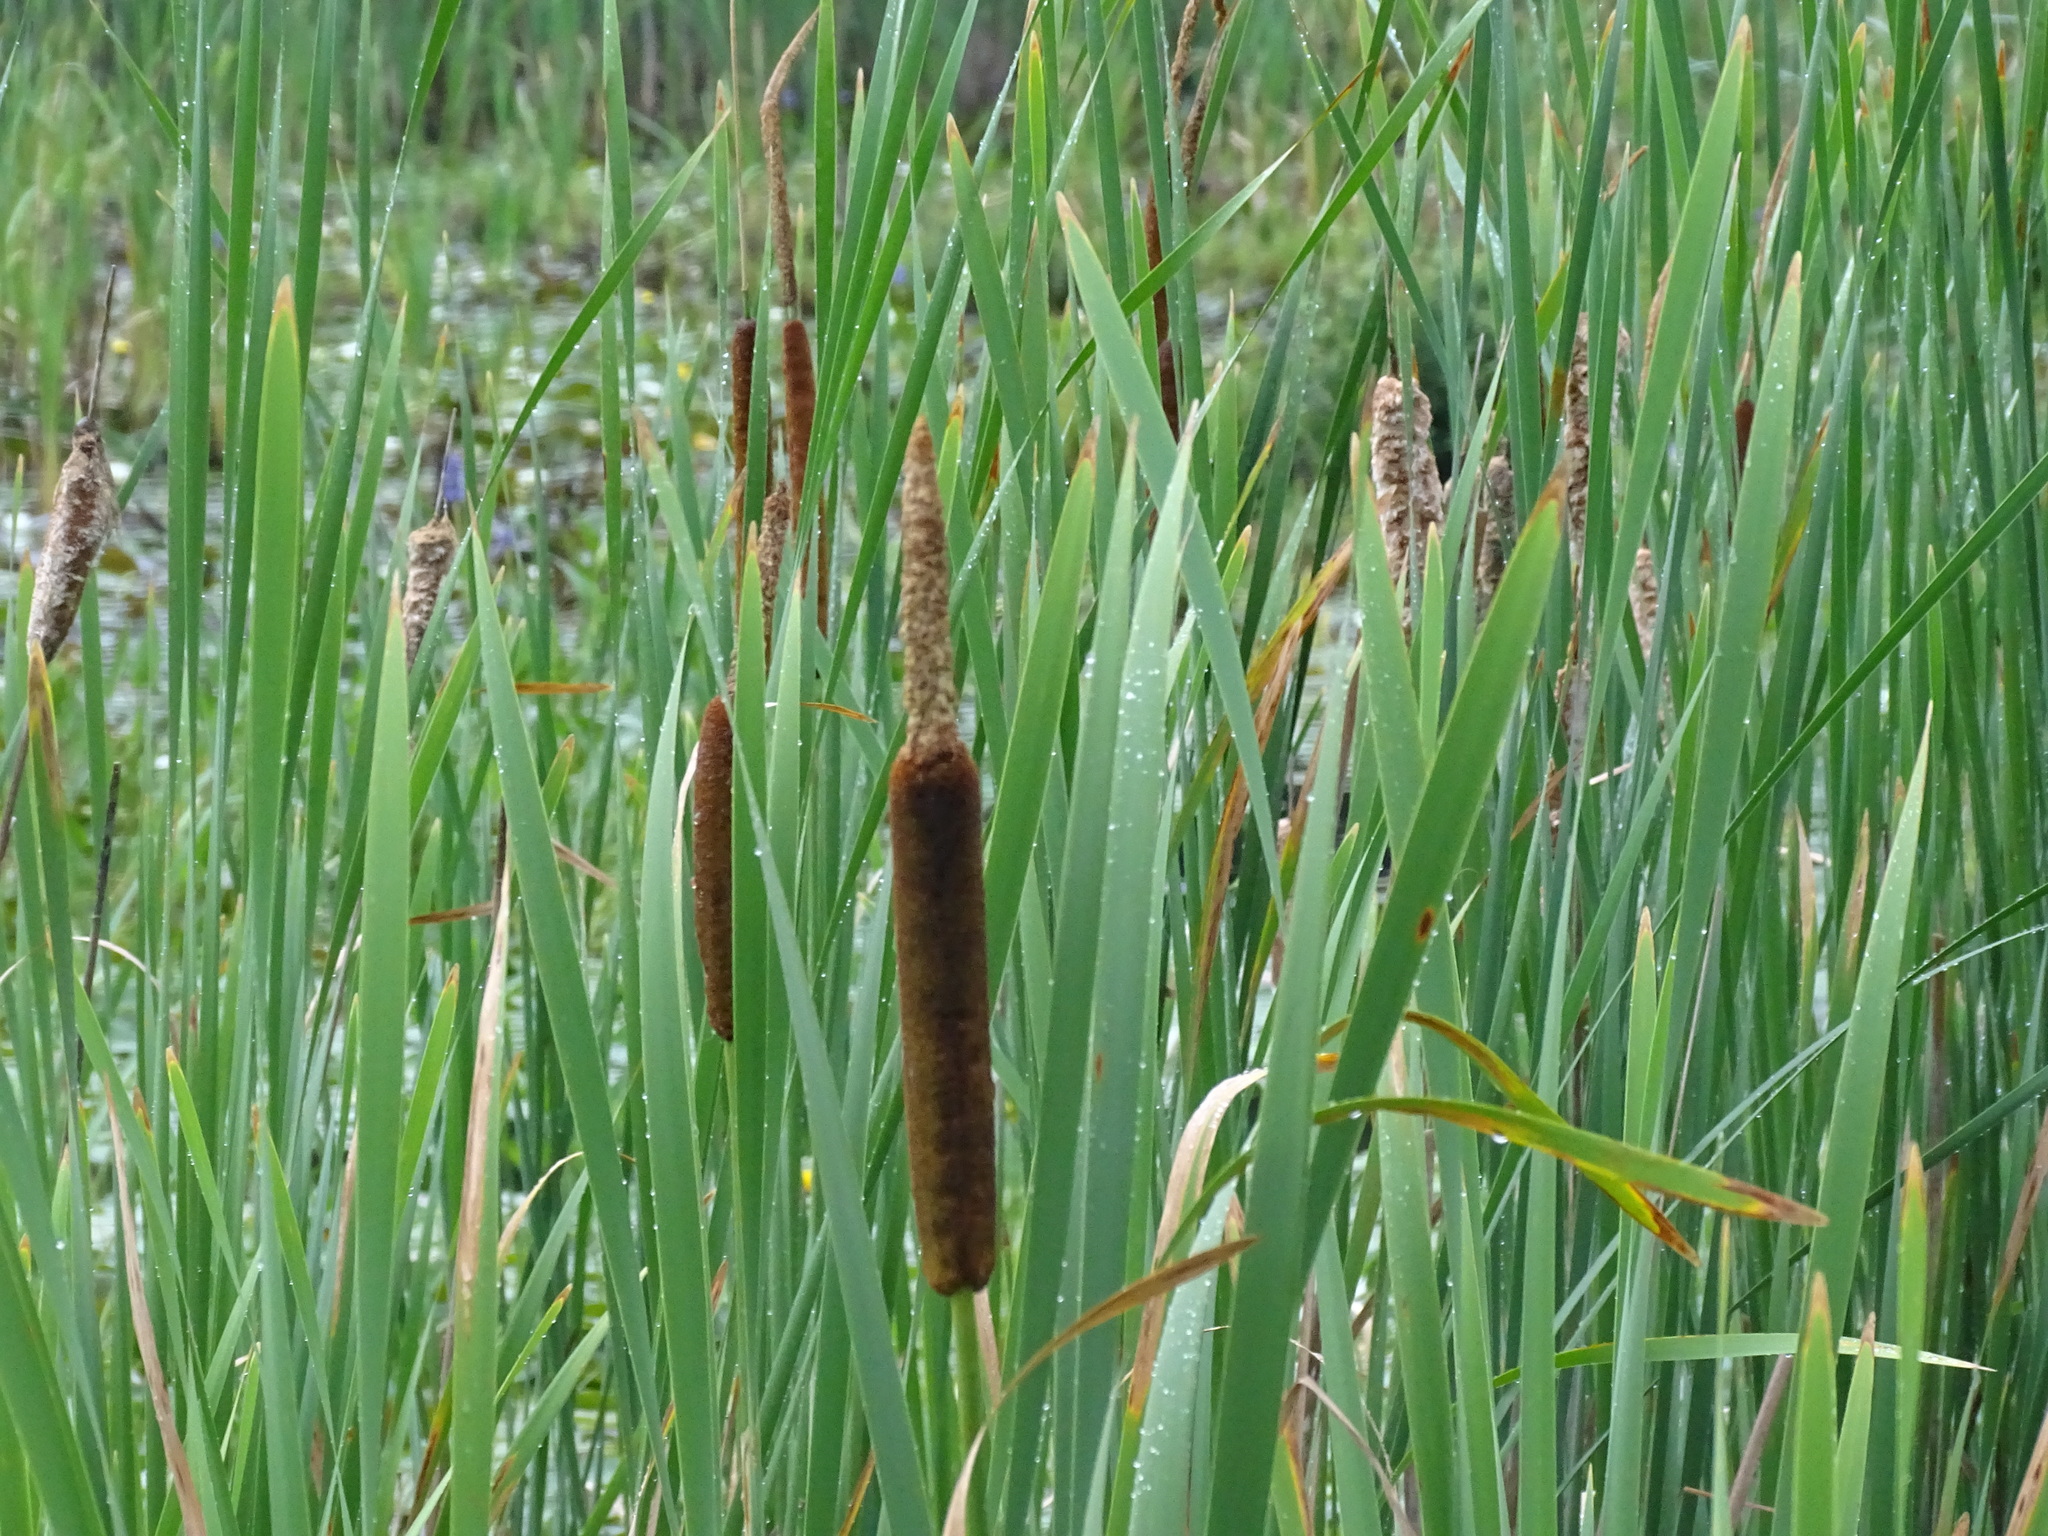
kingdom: Plantae
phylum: Tracheophyta
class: Liliopsida
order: Poales
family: Typhaceae
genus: Typha
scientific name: Typha latifolia
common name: Broadleaf cattail
